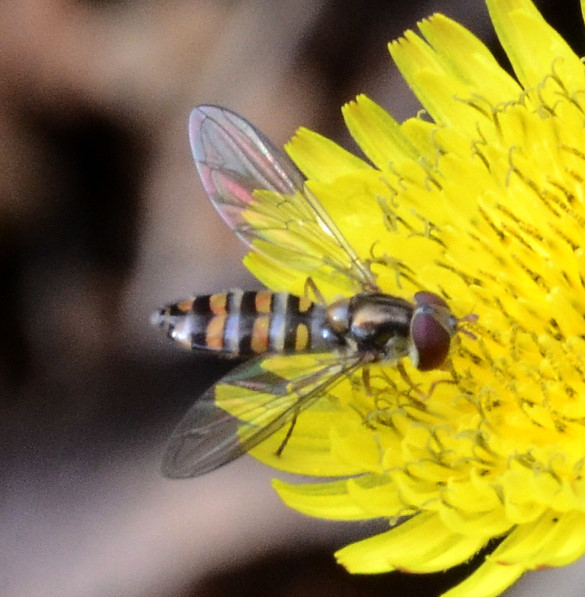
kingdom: Animalia
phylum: Arthropoda
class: Insecta
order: Diptera
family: Syrphidae
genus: Episyrphus
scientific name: Episyrphus balteatus
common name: Marmalade hoverfly
